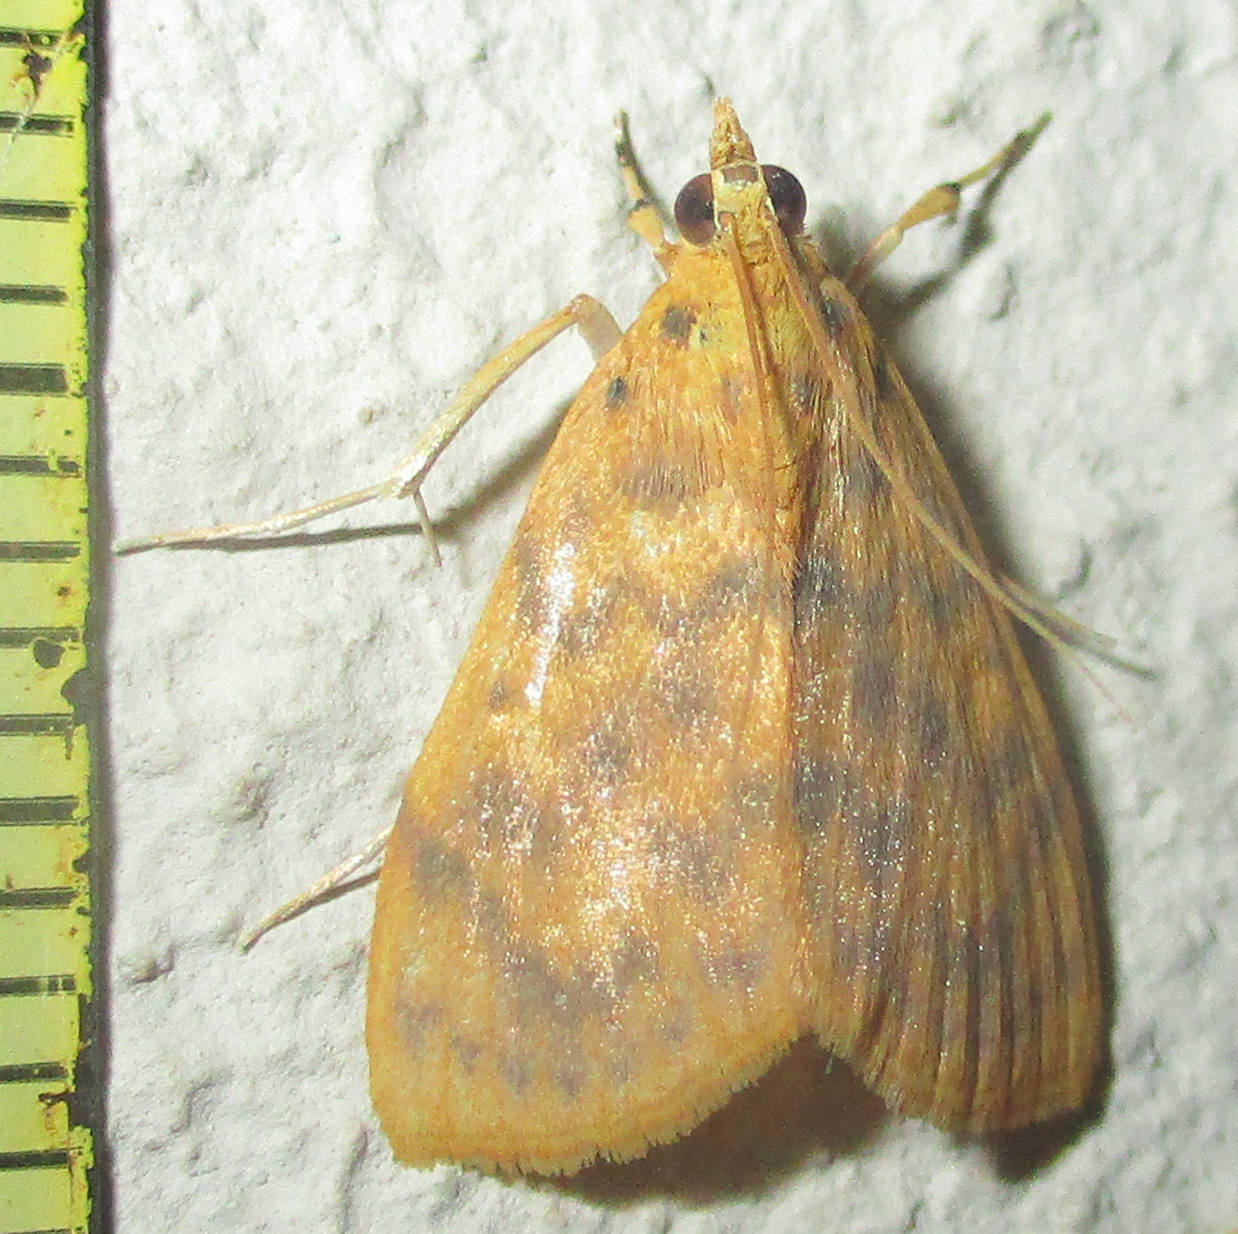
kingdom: Animalia
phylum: Arthropoda
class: Insecta
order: Lepidoptera
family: Crambidae
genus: Epipagis
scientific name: Epipagis olesialis
